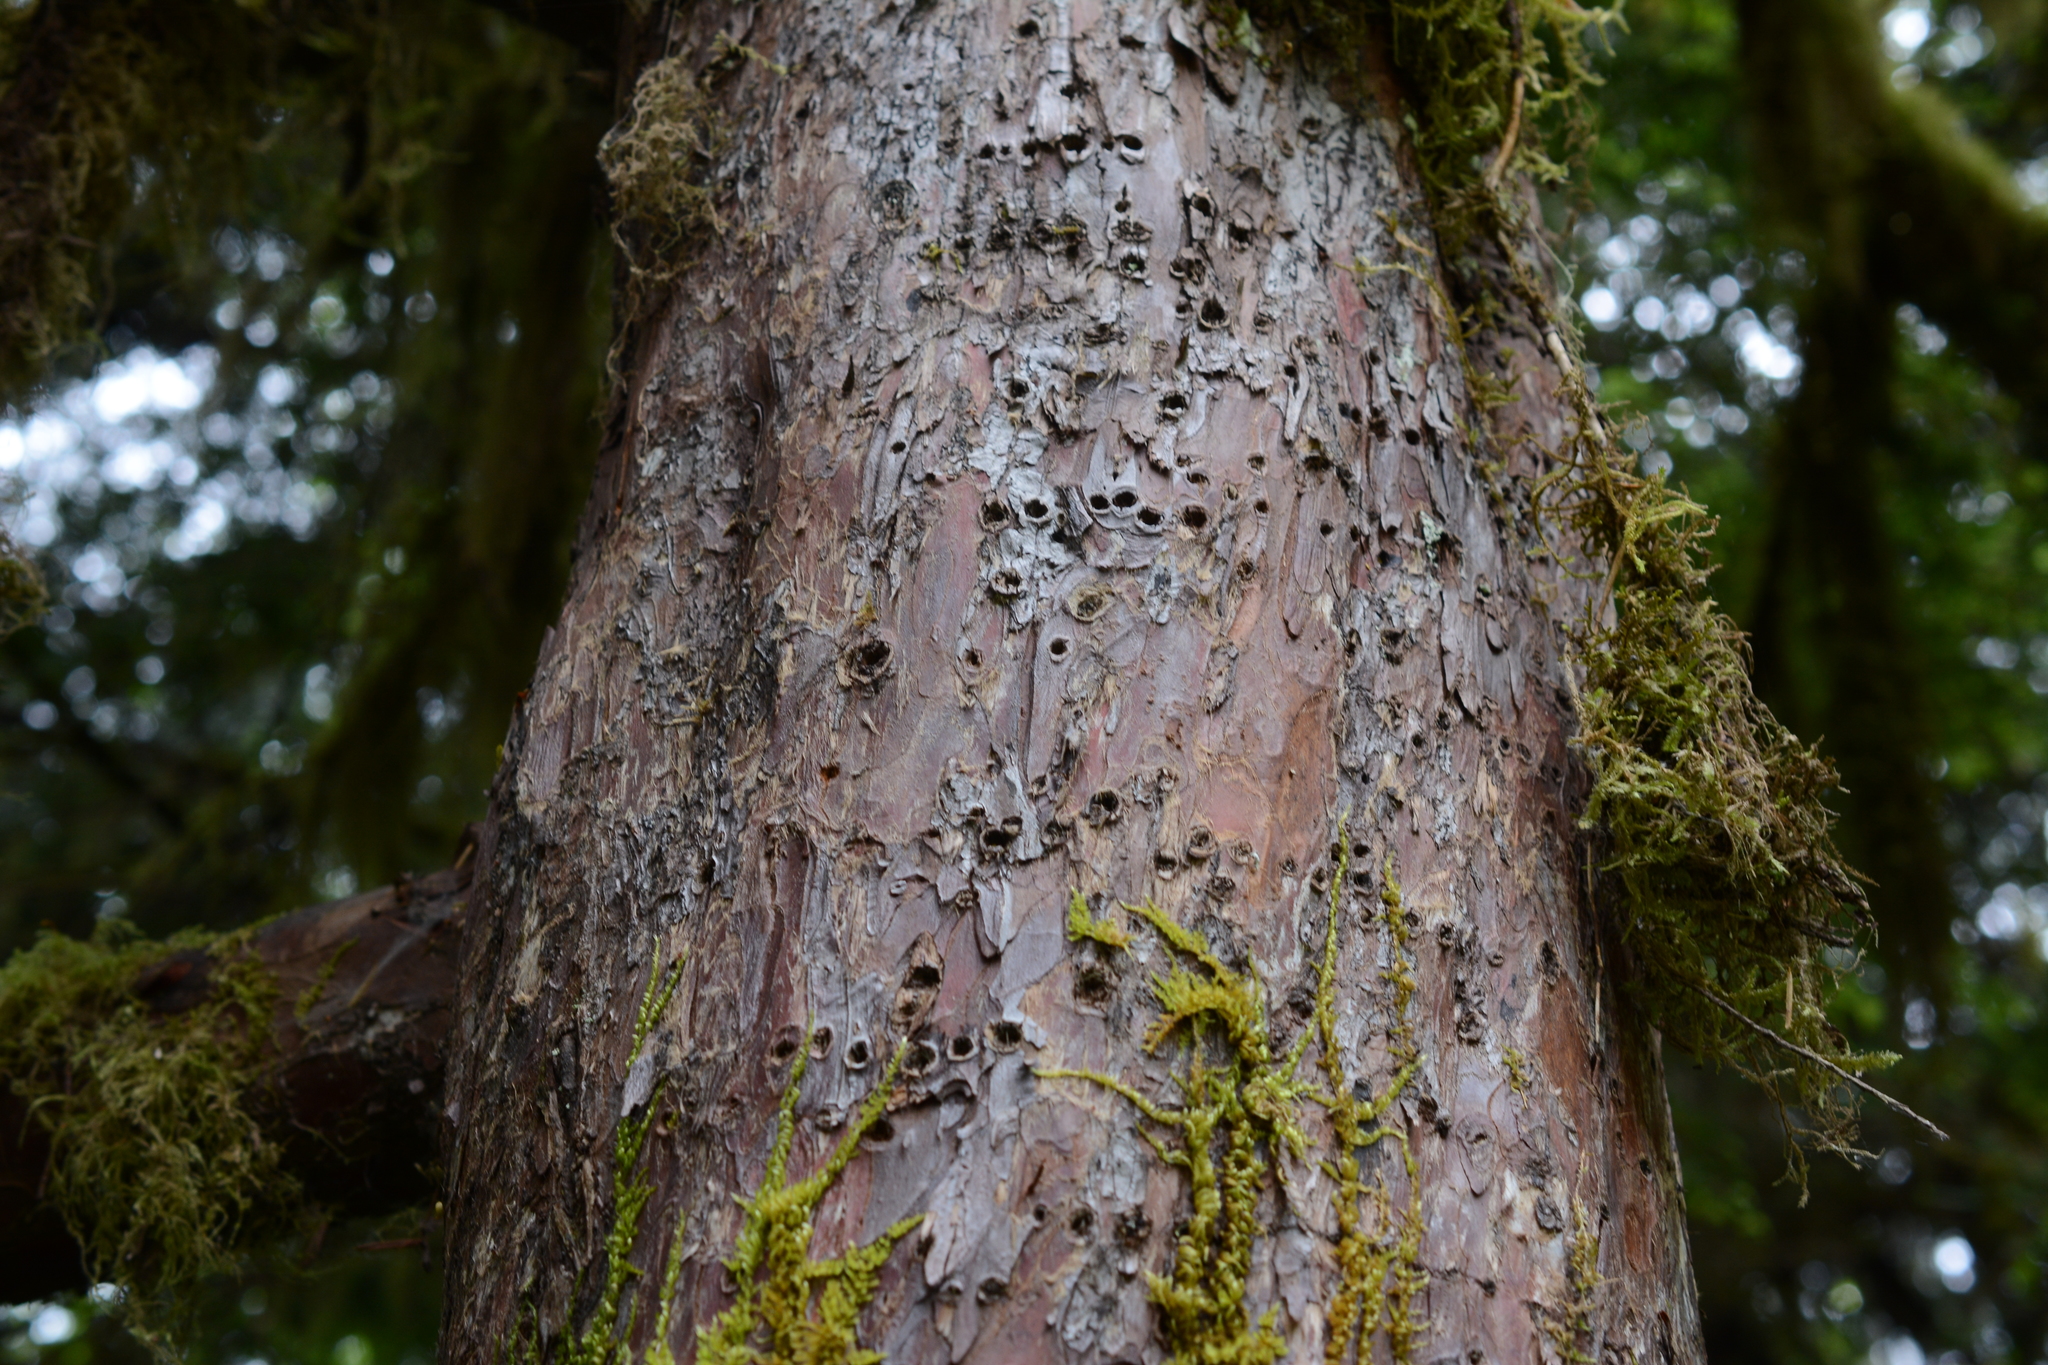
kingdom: Plantae
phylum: Tracheophyta
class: Pinopsida
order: Pinales
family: Taxaceae
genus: Taxus
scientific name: Taxus brevifolia
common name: Pacific yew
